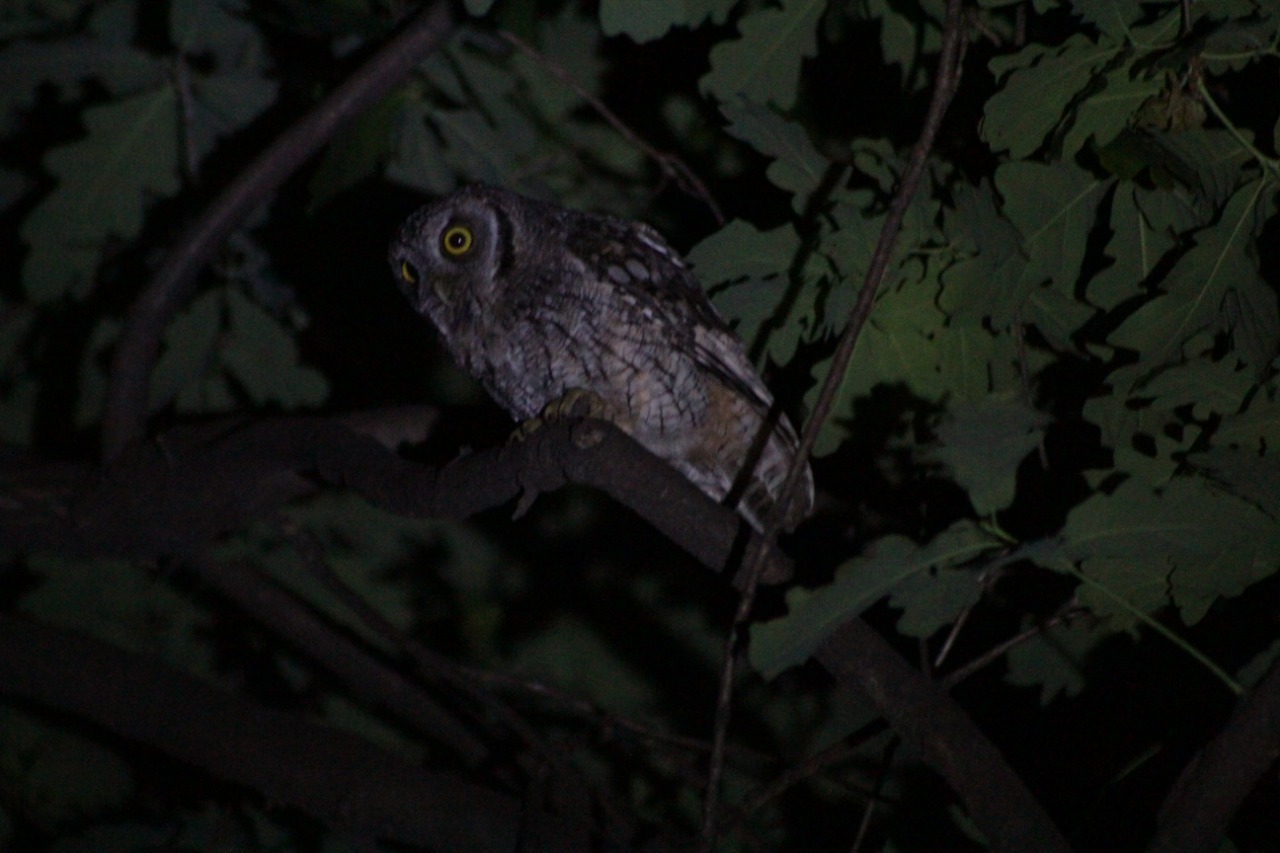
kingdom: Animalia
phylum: Chordata
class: Aves
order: Strigiformes
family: Strigidae
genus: Megascops
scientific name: Megascops choliba
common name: Tropical screech-owl
